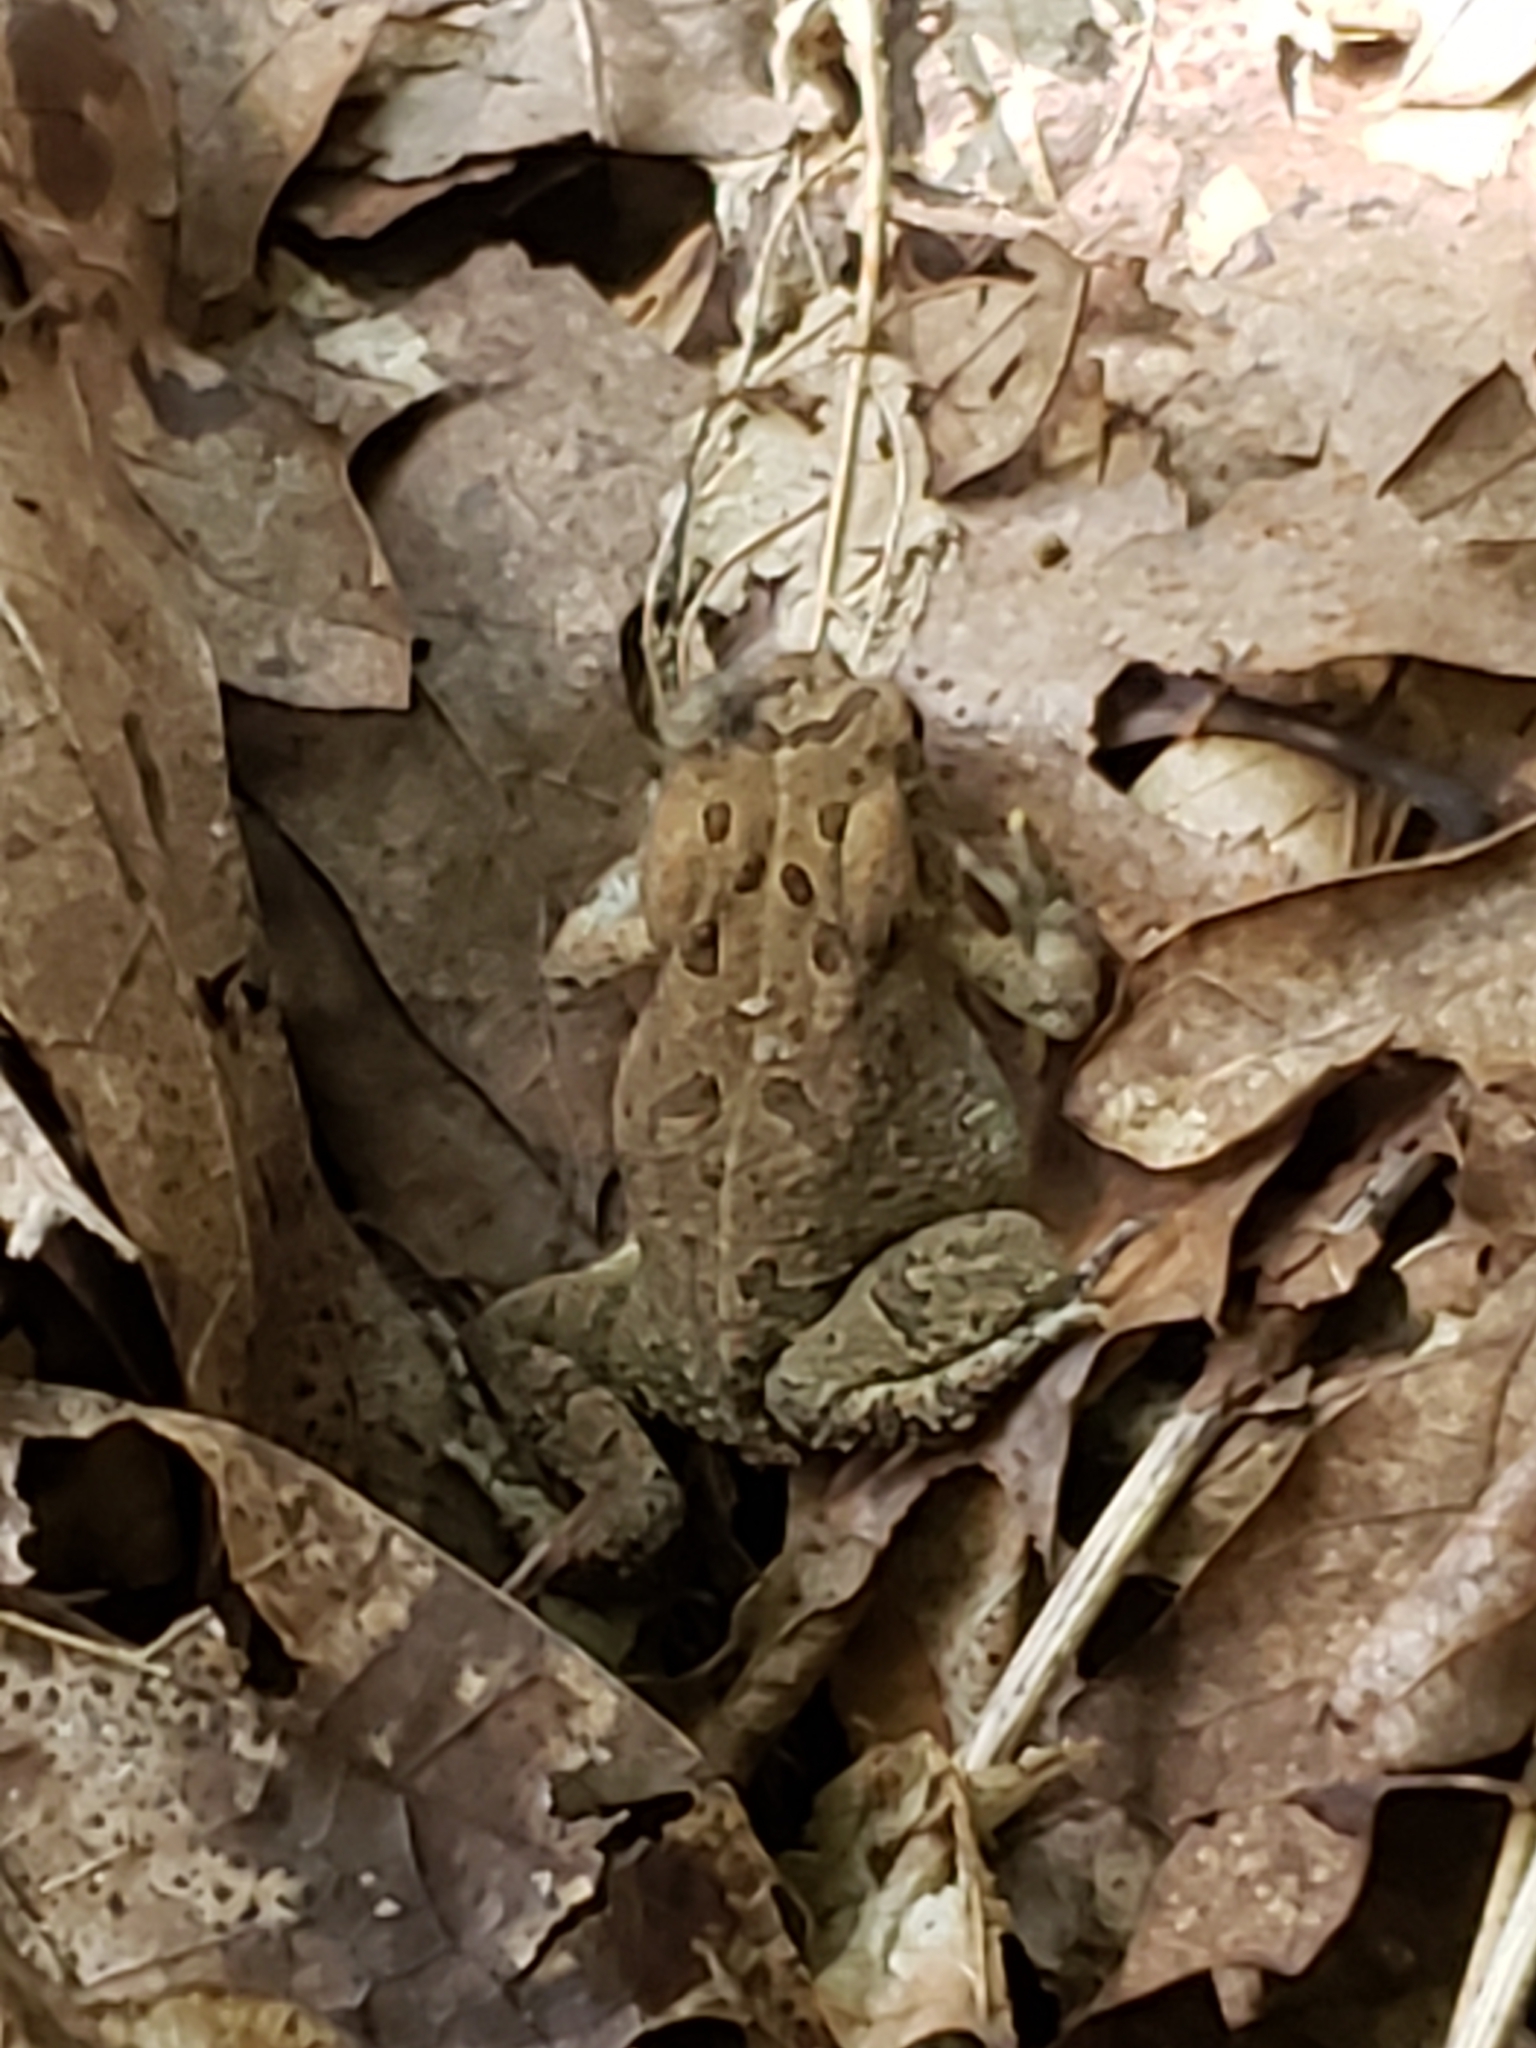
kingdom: Animalia
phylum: Chordata
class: Amphibia
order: Anura
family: Bufonidae
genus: Anaxyrus
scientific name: Anaxyrus fowleri
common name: Fowler's toad
